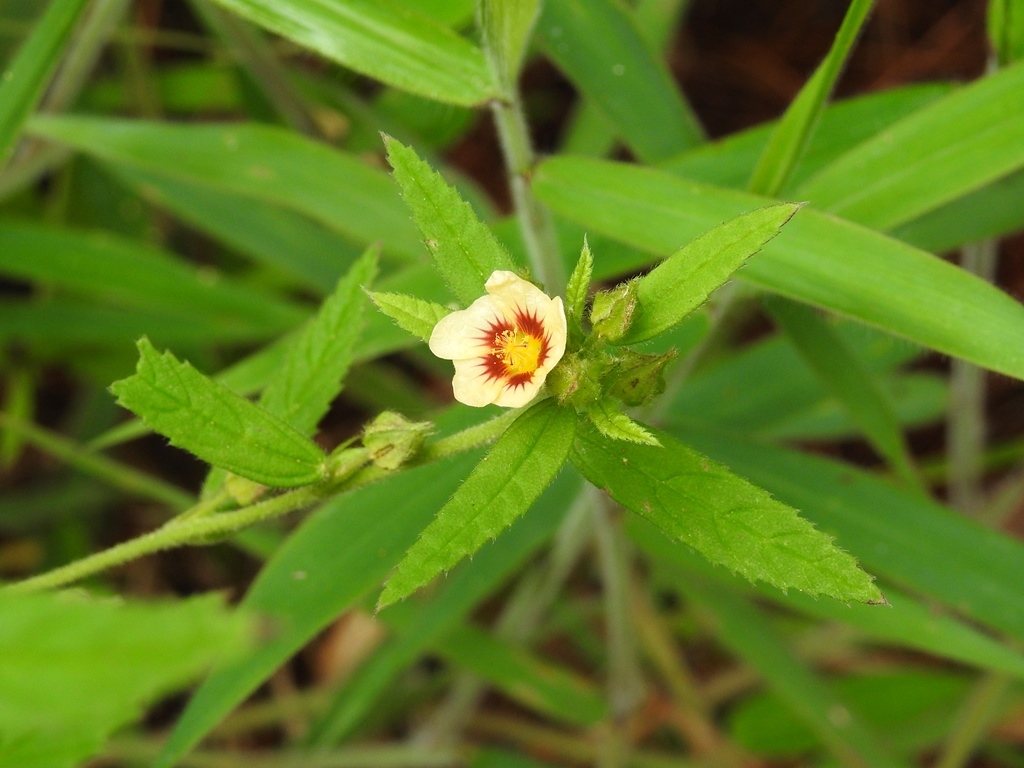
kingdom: Plantae
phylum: Tracheophyta
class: Magnoliopsida
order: Malvales
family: Malvaceae
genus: Sida
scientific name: Sida ciliaris
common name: Bracted fanpetals
